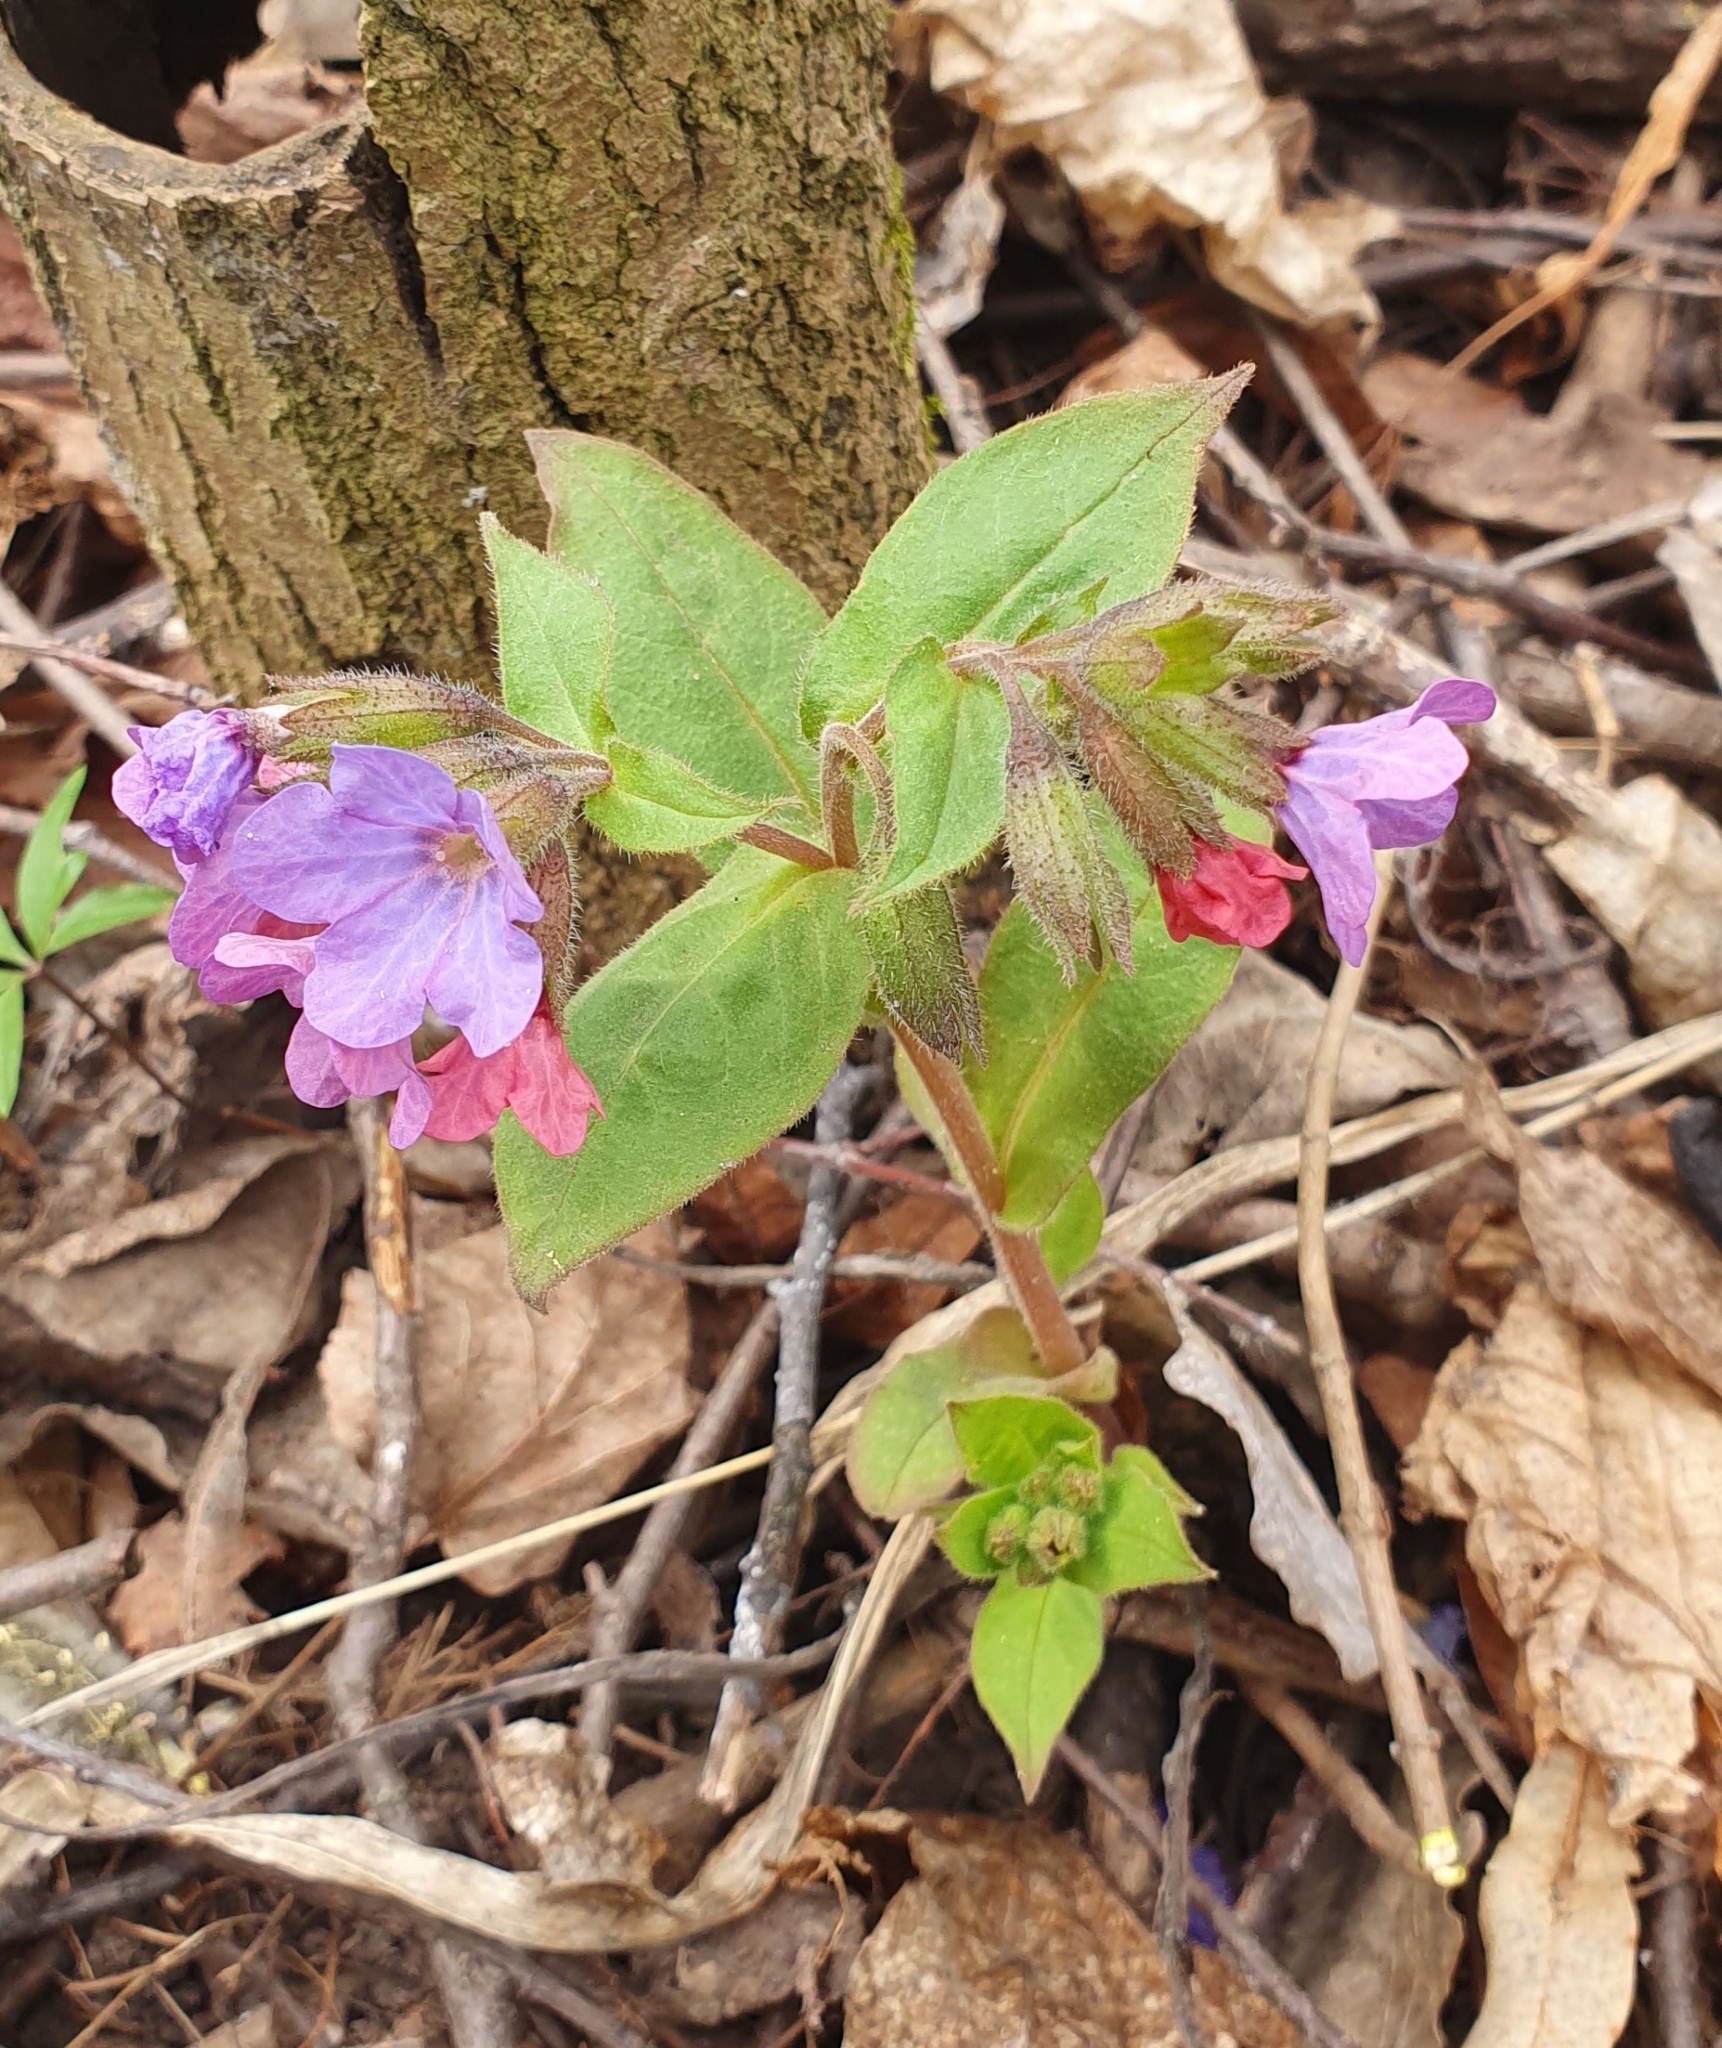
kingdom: Plantae
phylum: Tracheophyta
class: Magnoliopsida
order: Boraginales
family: Boraginaceae
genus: Pulmonaria
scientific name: Pulmonaria obscura
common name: Suffolk lungwort
